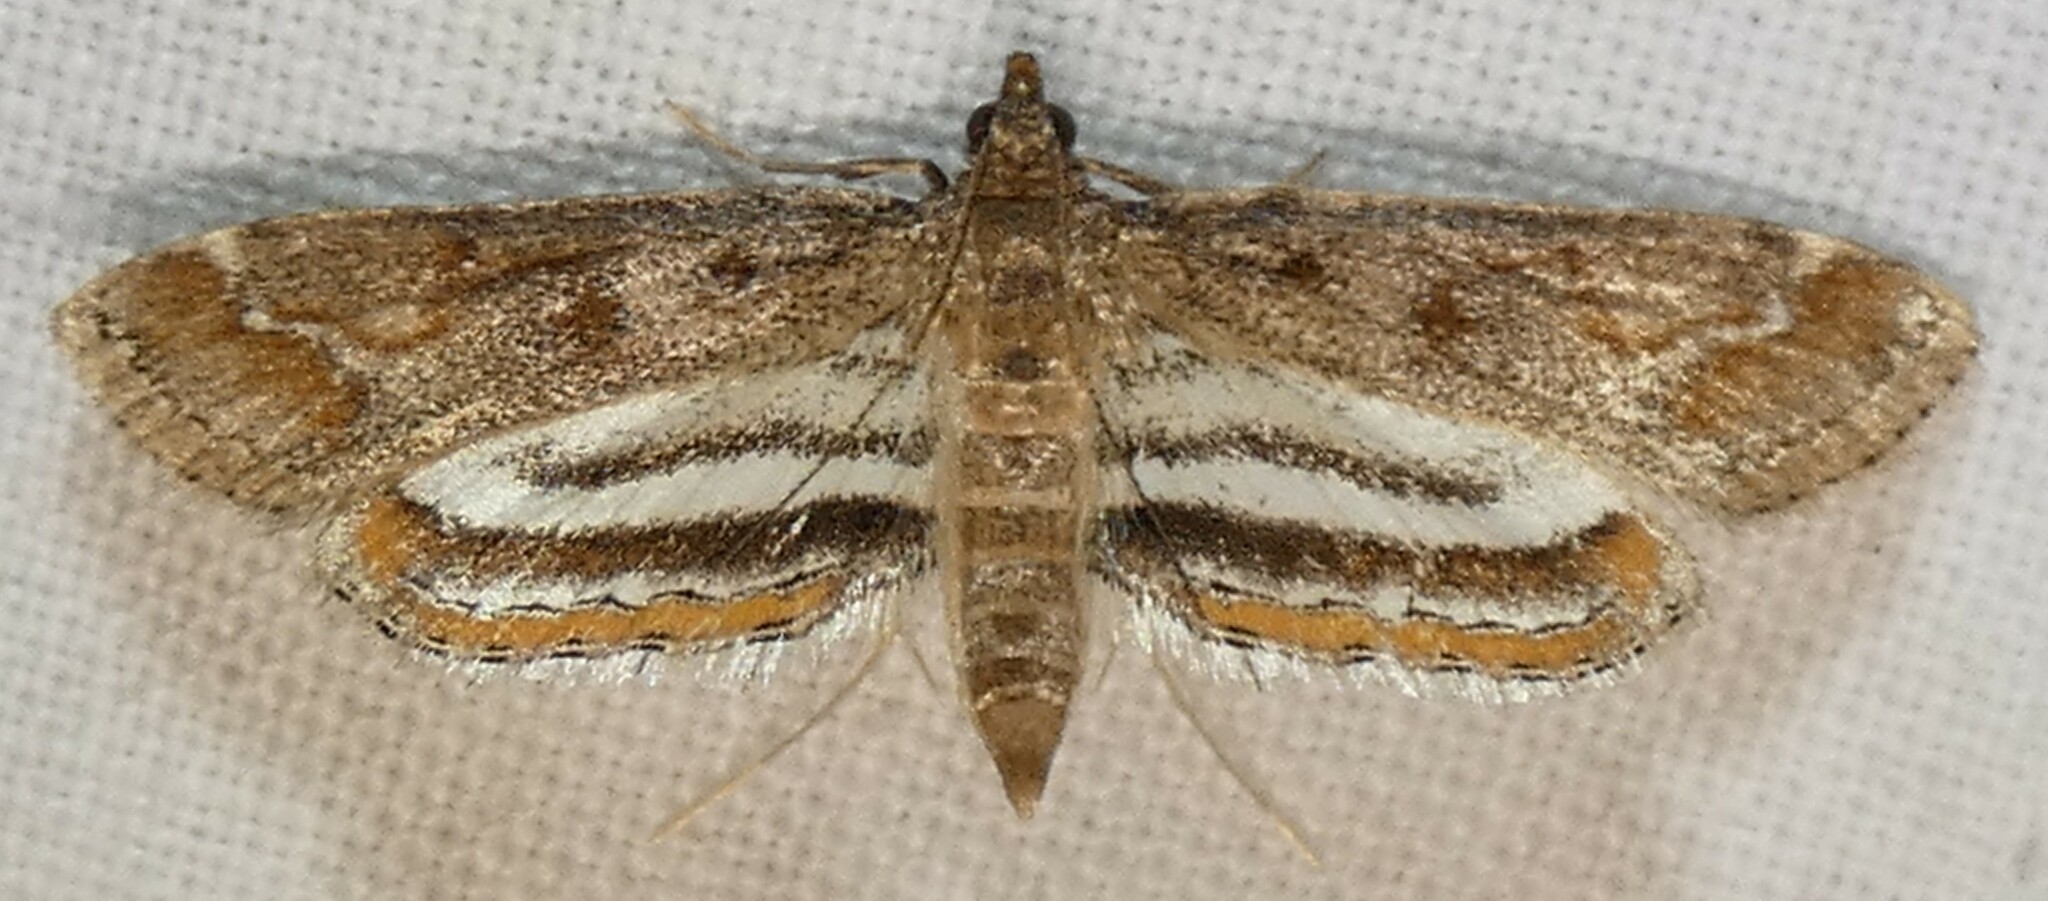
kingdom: Animalia
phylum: Arthropoda
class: Insecta
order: Lepidoptera
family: Crambidae
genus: Parapoynx
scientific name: Parapoynx obscuralis
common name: American china-mark
